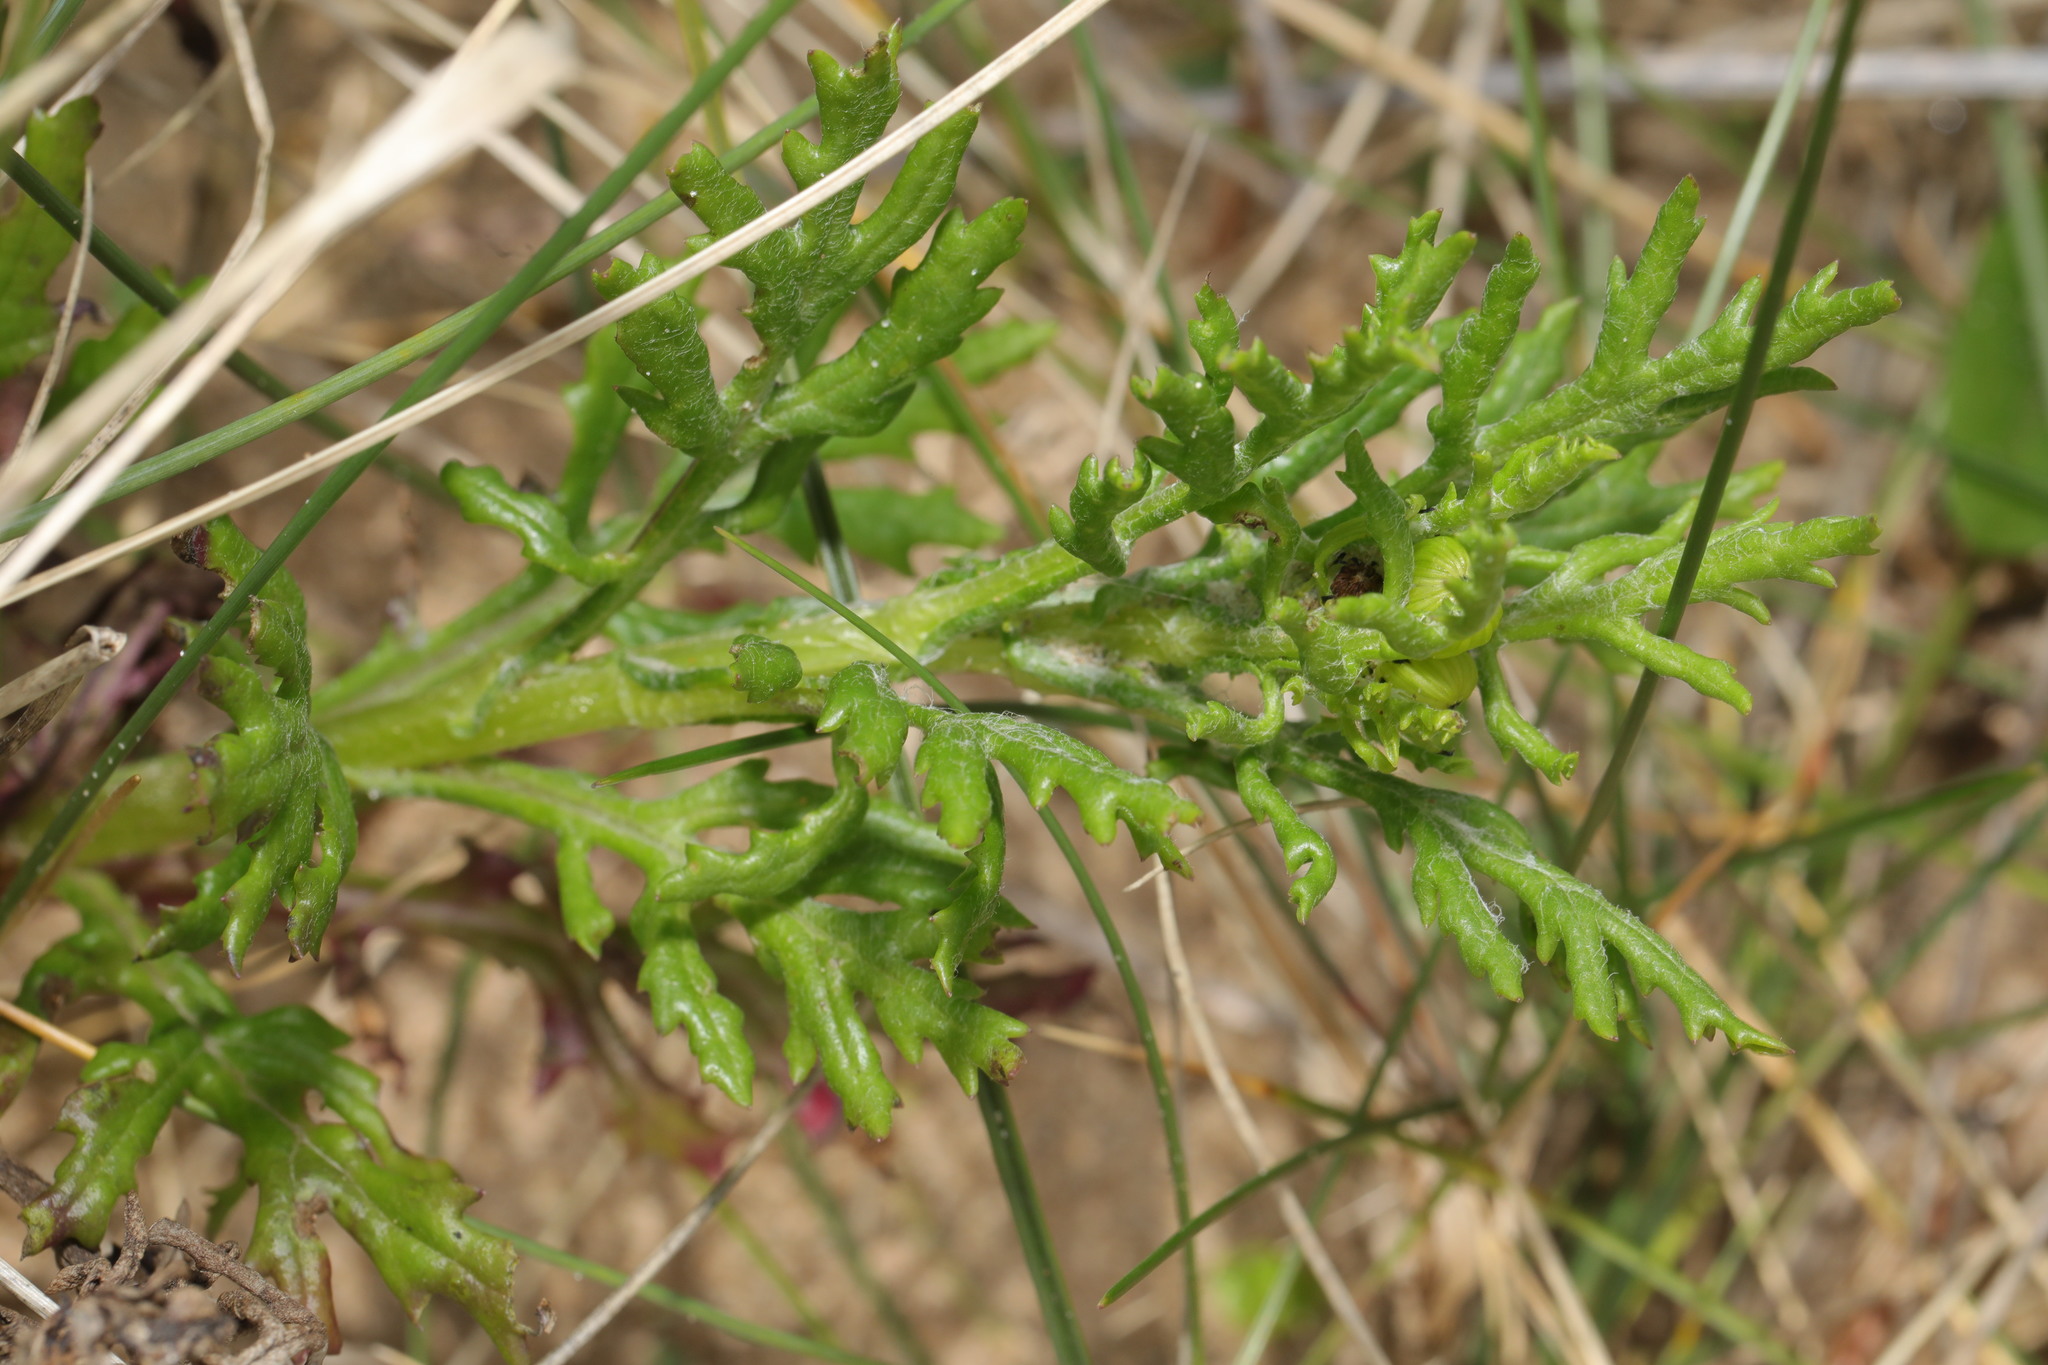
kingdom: Plantae
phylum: Tracheophyta
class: Magnoliopsida
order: Asterales
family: Asteraceae
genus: Senecio
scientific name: Senecio squalidus
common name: Oxford ragwort
